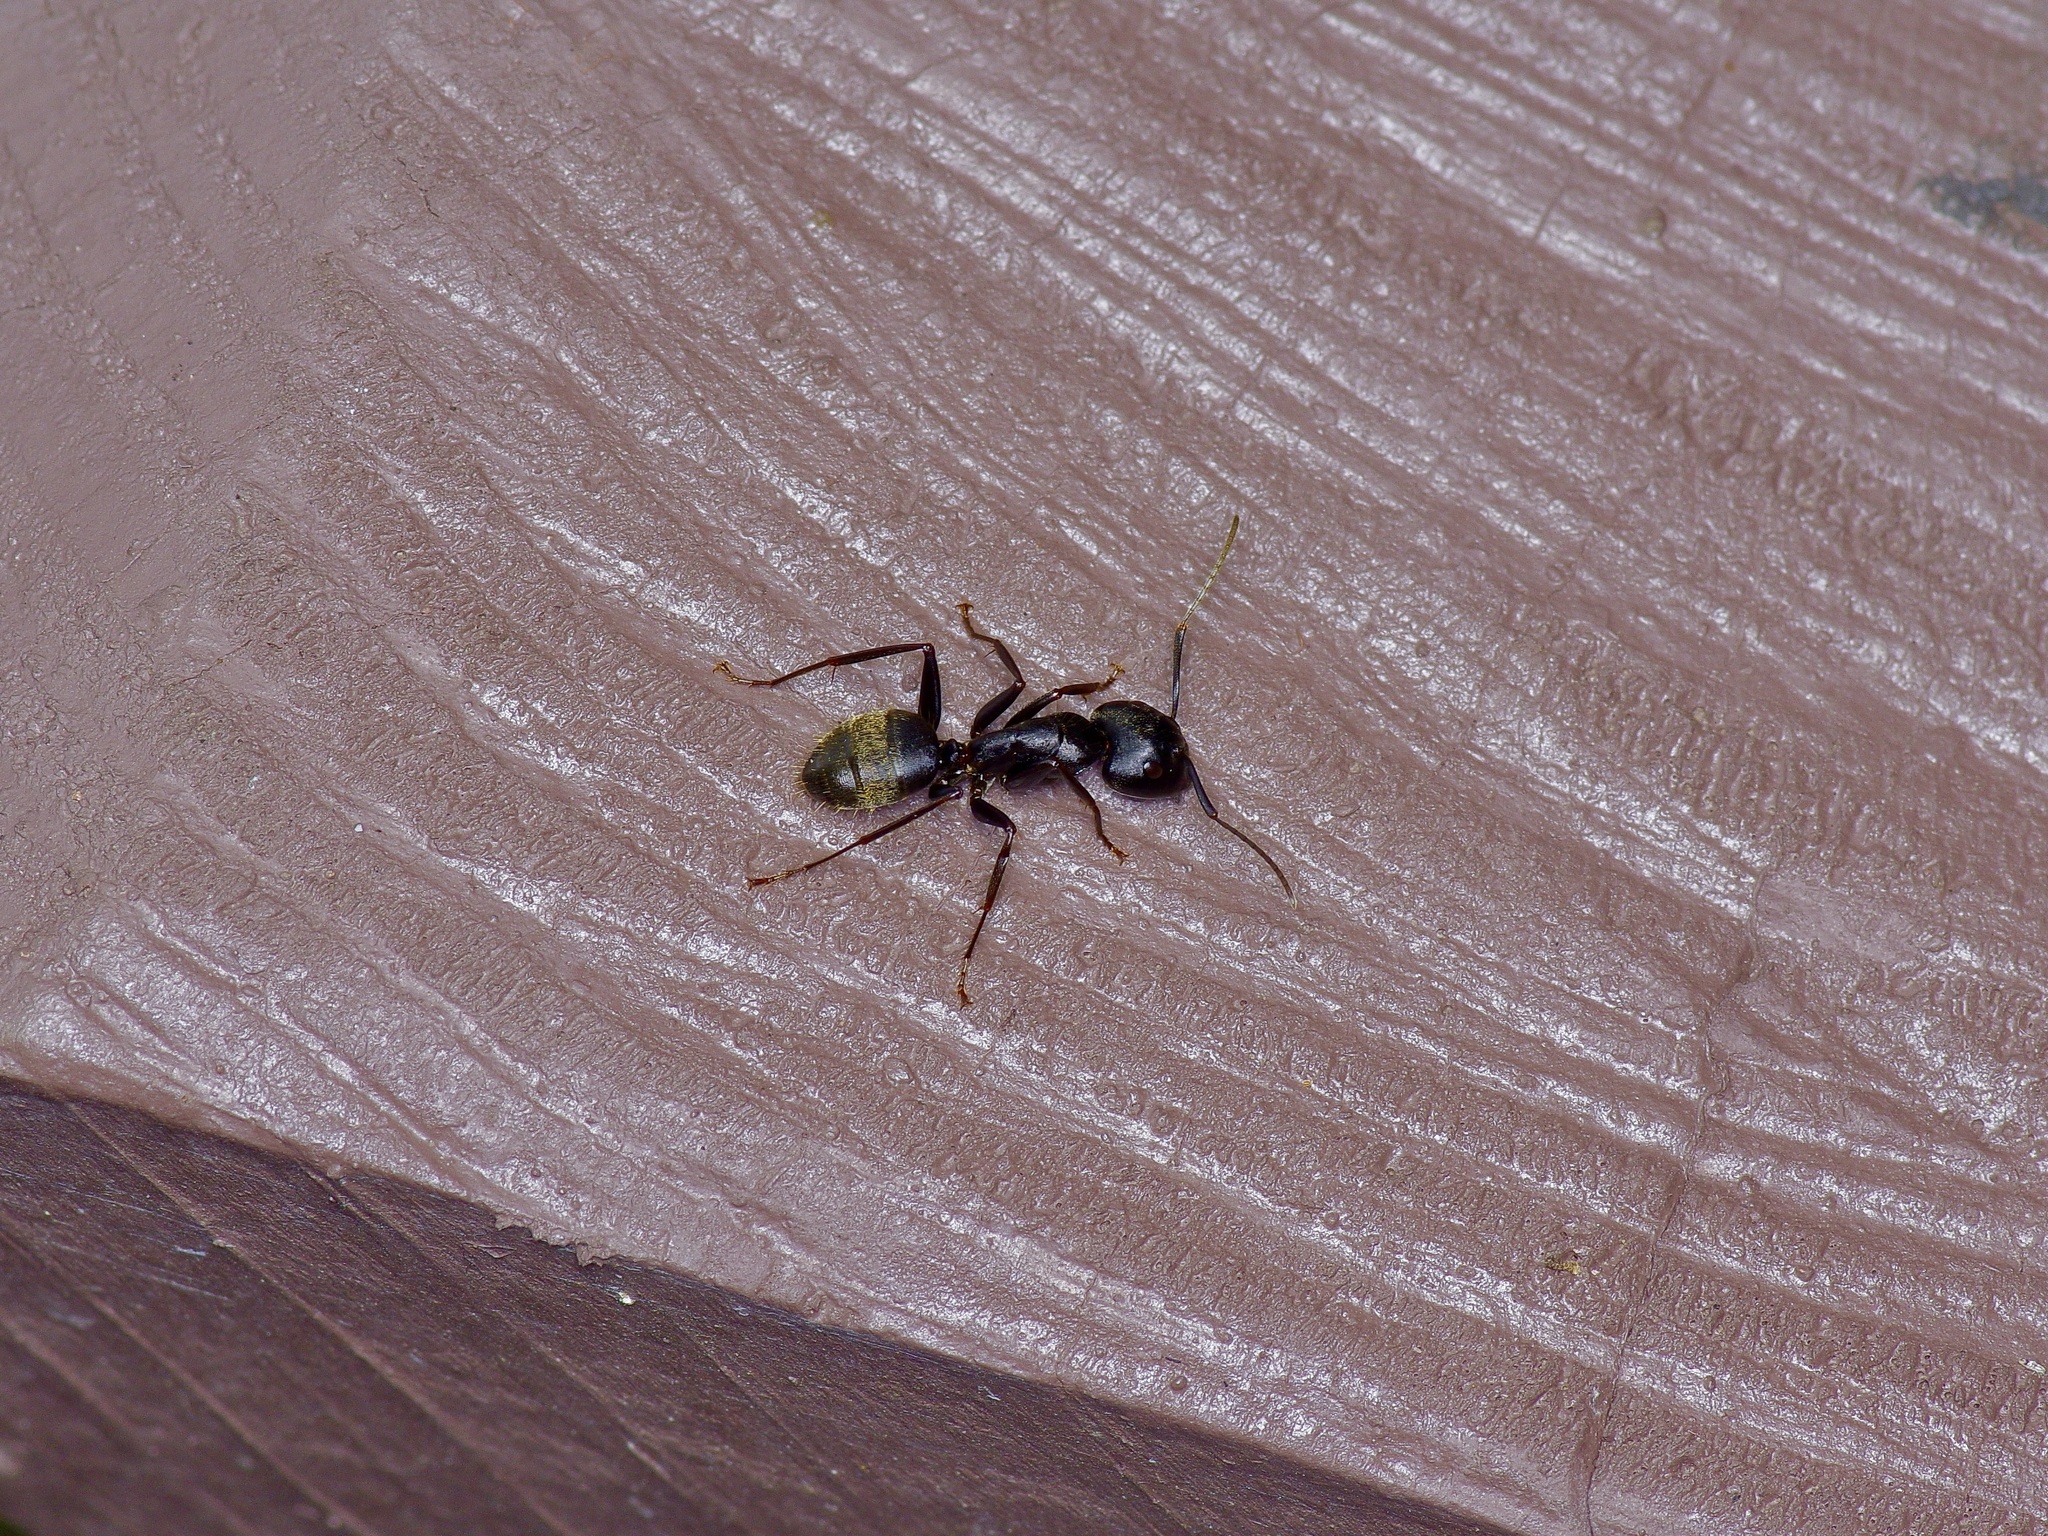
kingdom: Animalia
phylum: Arthropoda
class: Insecta
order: Hymenoptera
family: Formicidae
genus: Camponotus
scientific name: Camponotus pennsylvanicus
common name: Black carpenter ant
